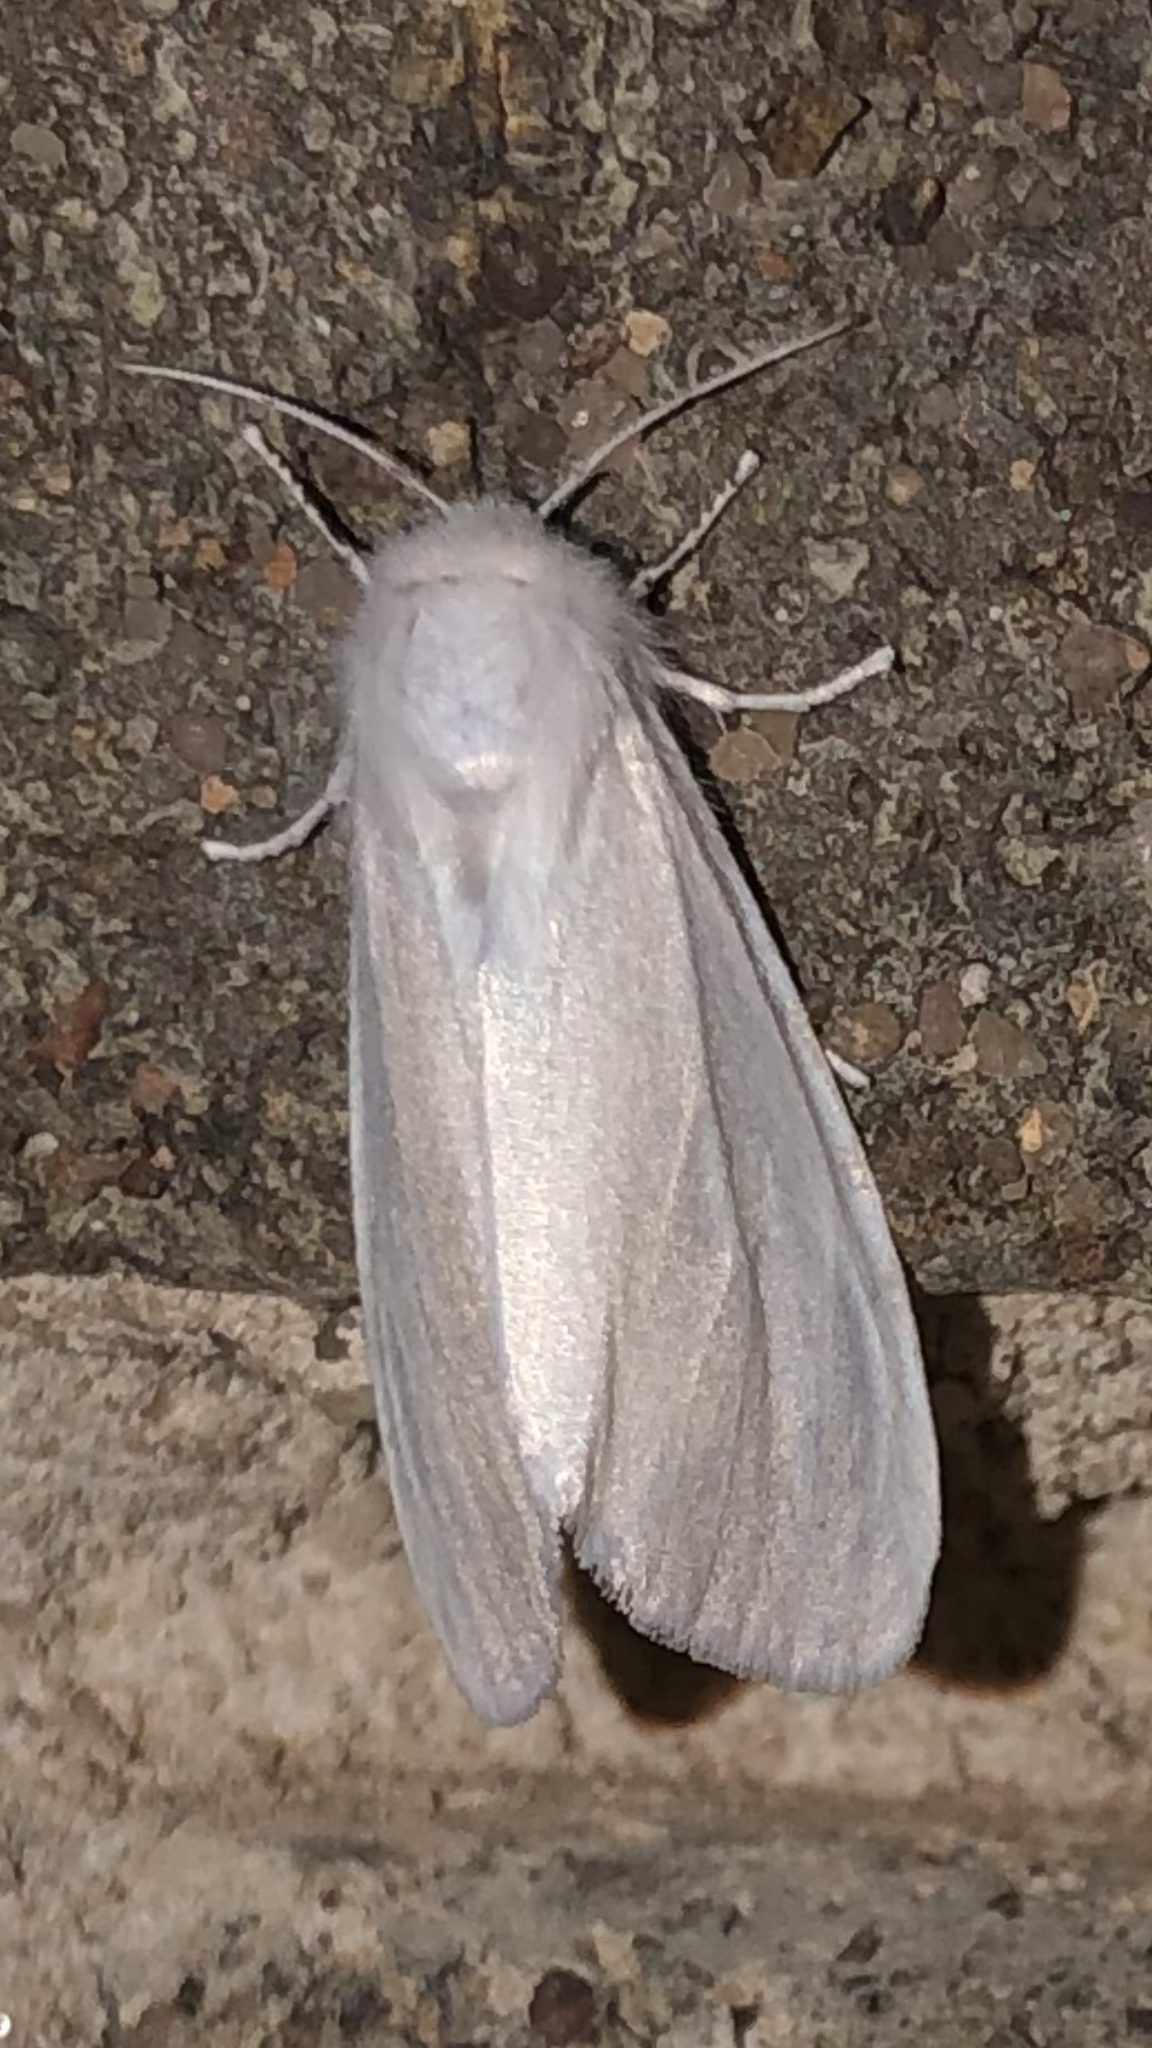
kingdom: Animalia
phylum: Arthropoda
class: Insecta
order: Lepidoptera
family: Erebidae
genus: Hyphantria
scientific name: Hyphantria cunea
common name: American white moth
